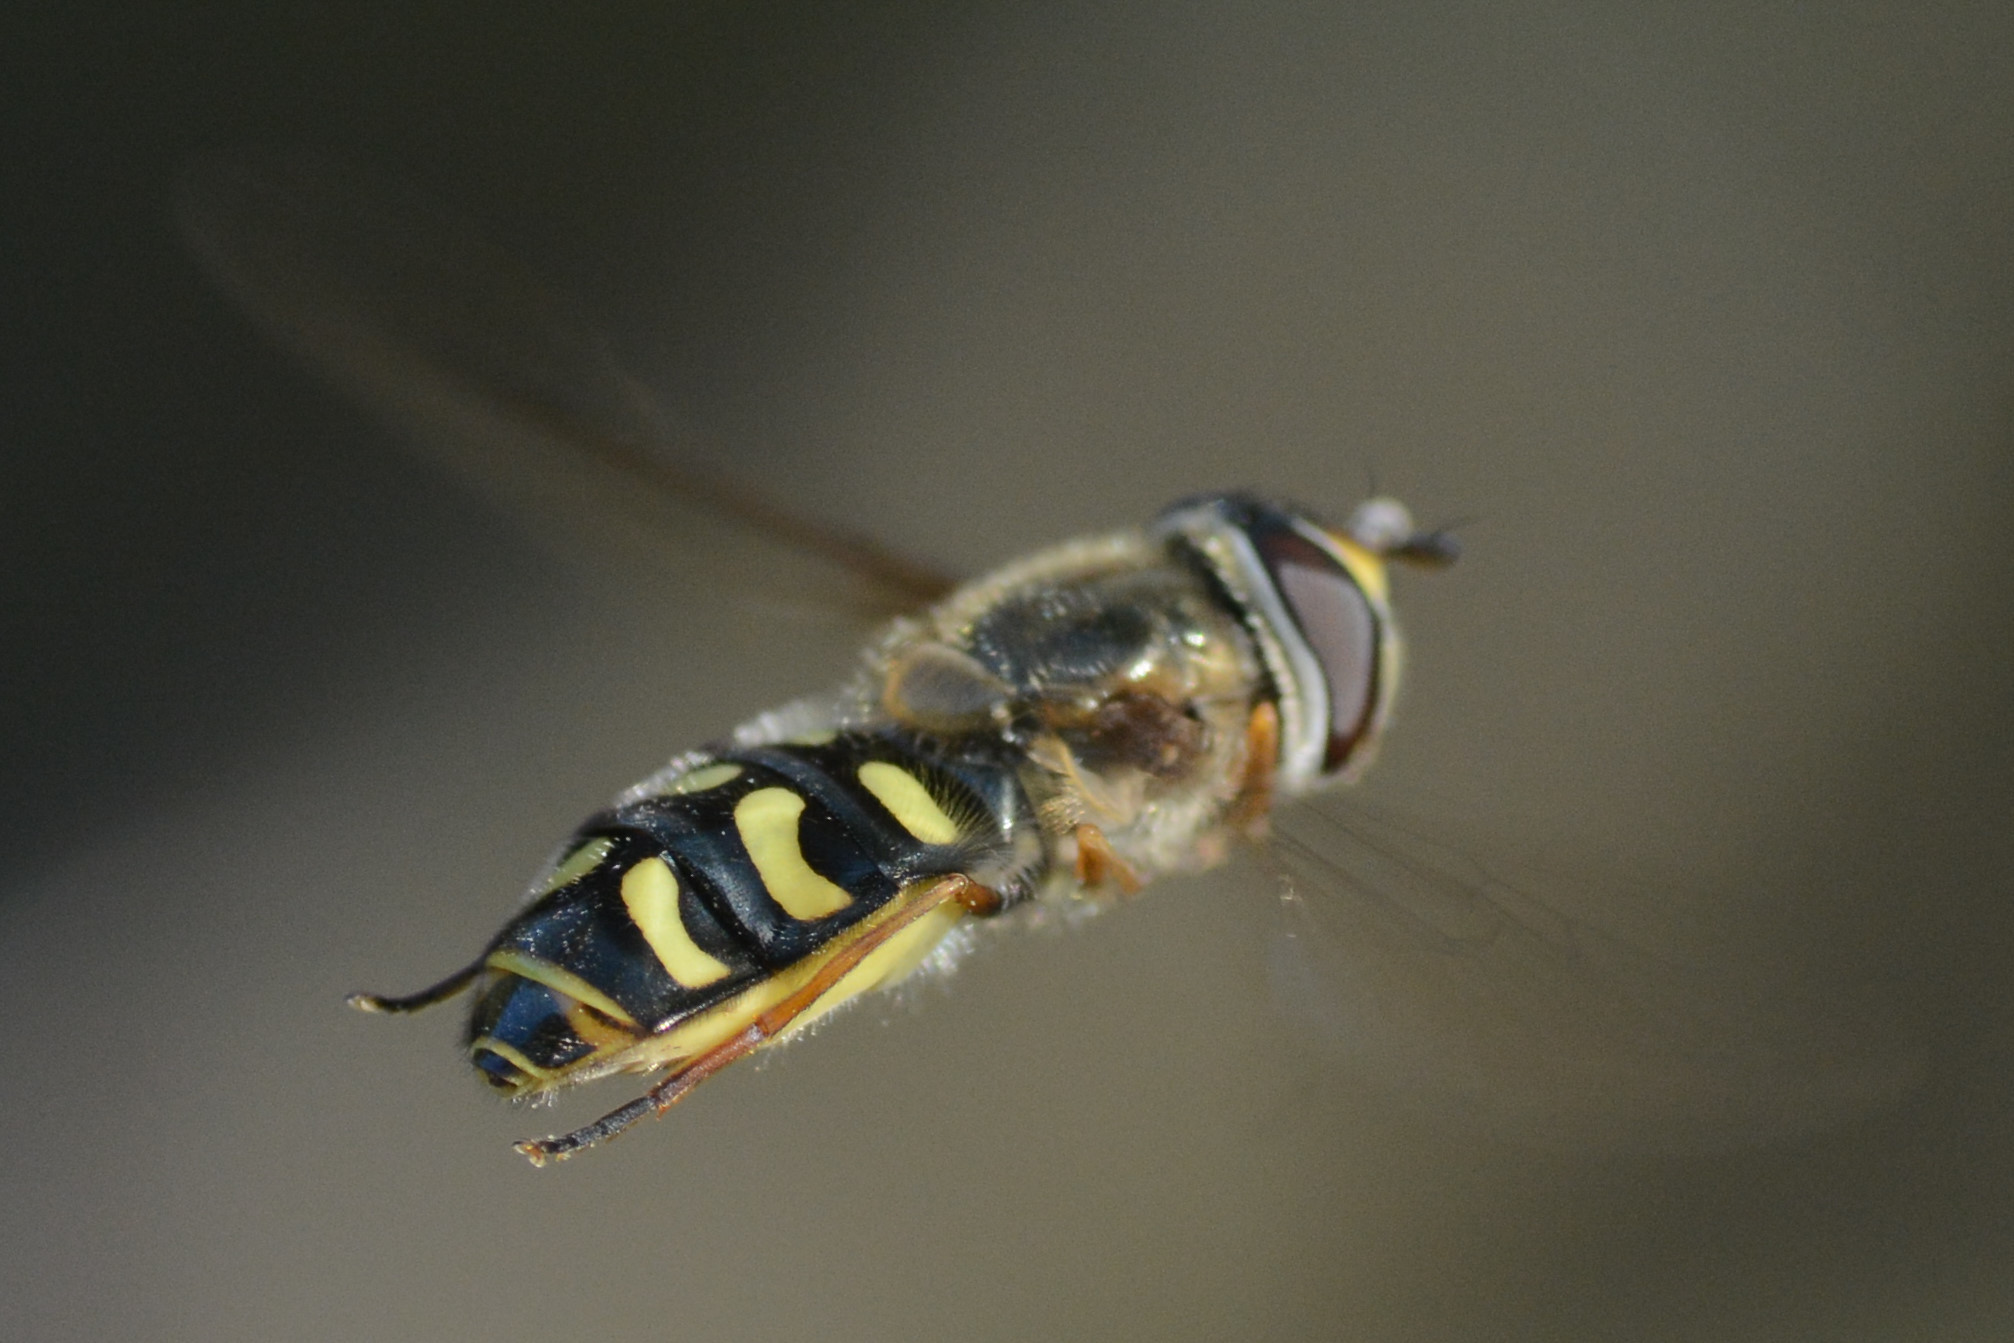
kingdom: Animalia
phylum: Arthropoda
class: Insecta
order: Diptera
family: Syrphidae
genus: Eupeodes
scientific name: Eupeodes luniger
